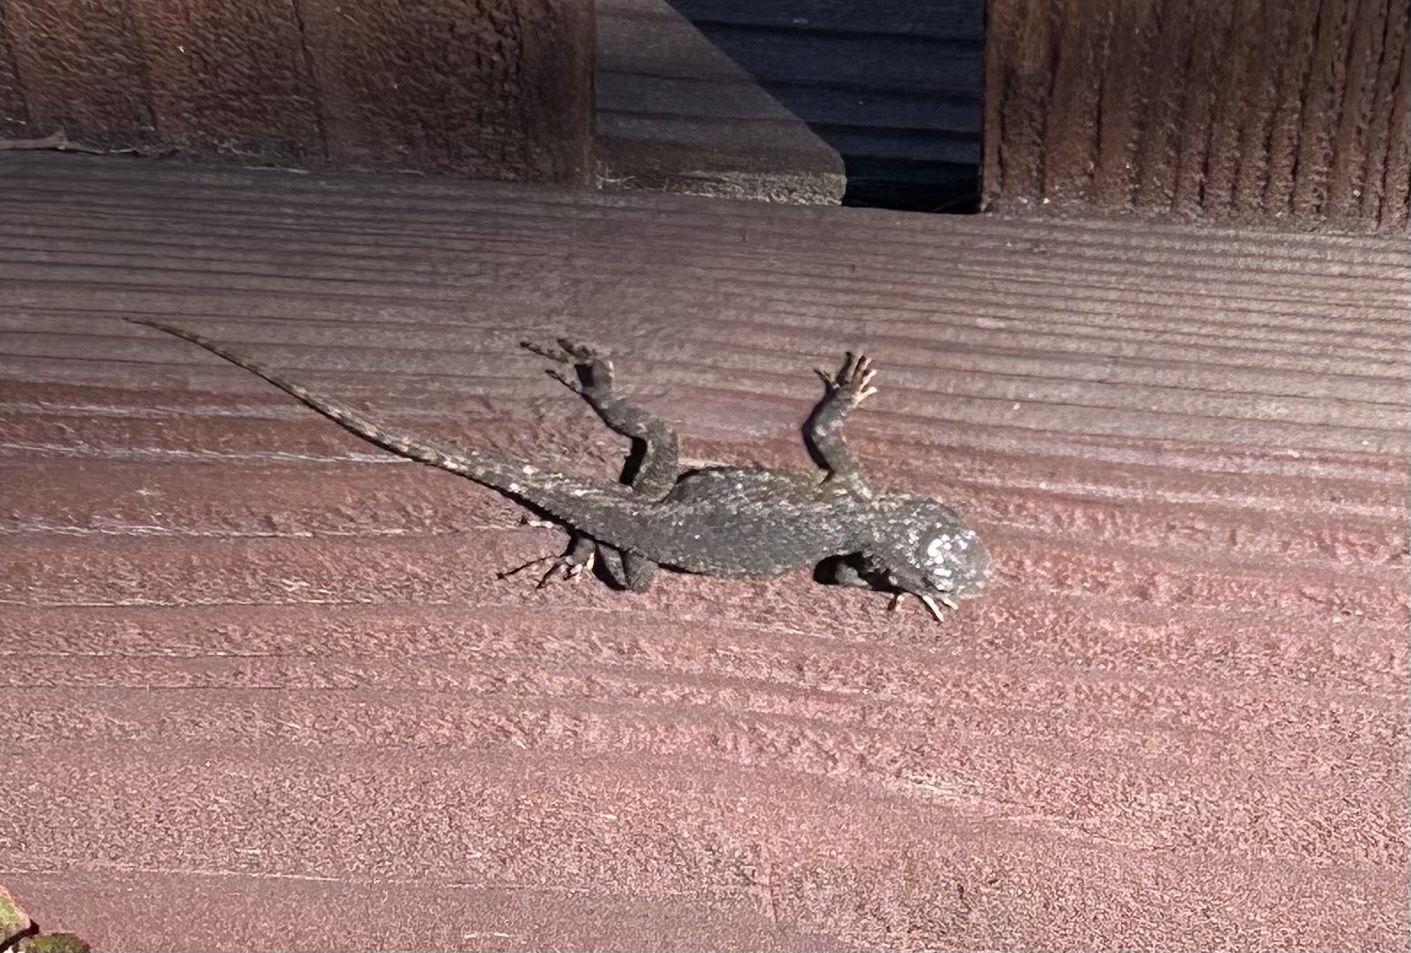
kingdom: Animalia
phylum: Chordata
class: Squamata
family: Phrynosomatidae
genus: Sceloporus
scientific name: Sceloporus occidentalis
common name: Western fence lizard
